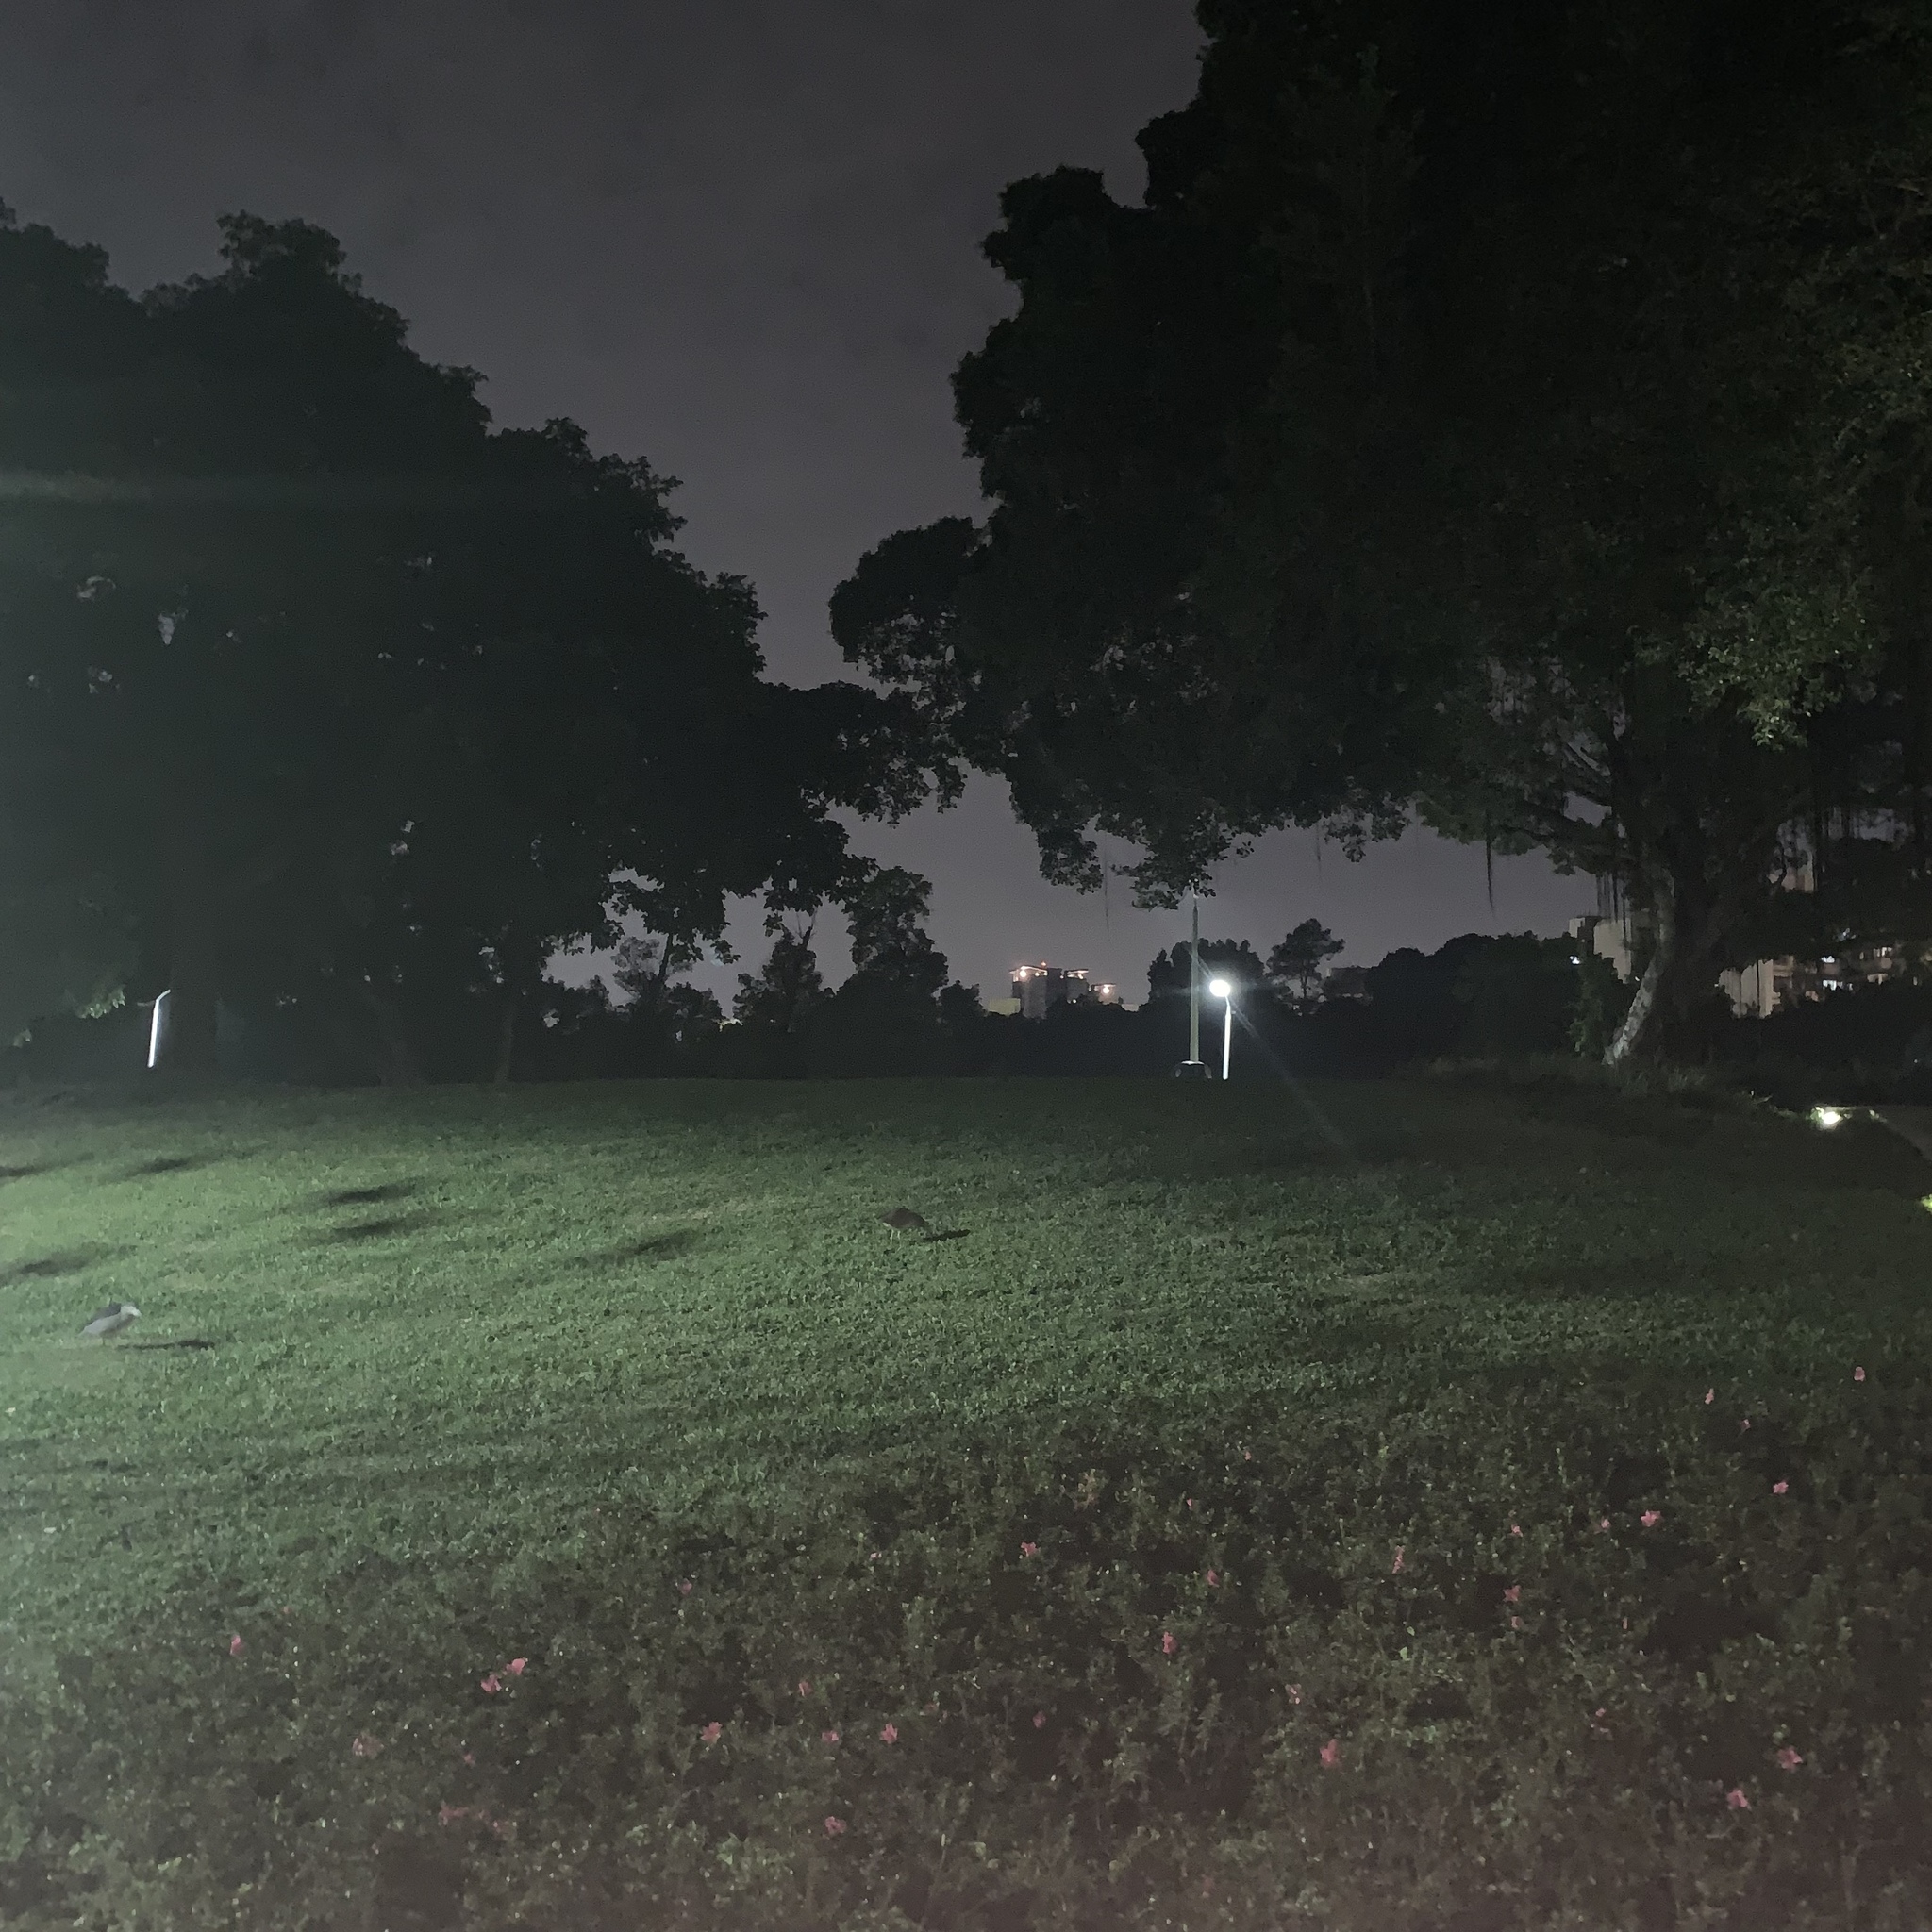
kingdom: Animalia
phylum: Chordata
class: Aves
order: Pelecaniformes
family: Ardeidae
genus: Gorsachius
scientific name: Gorsachius melanolophus
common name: Malayan night heron
